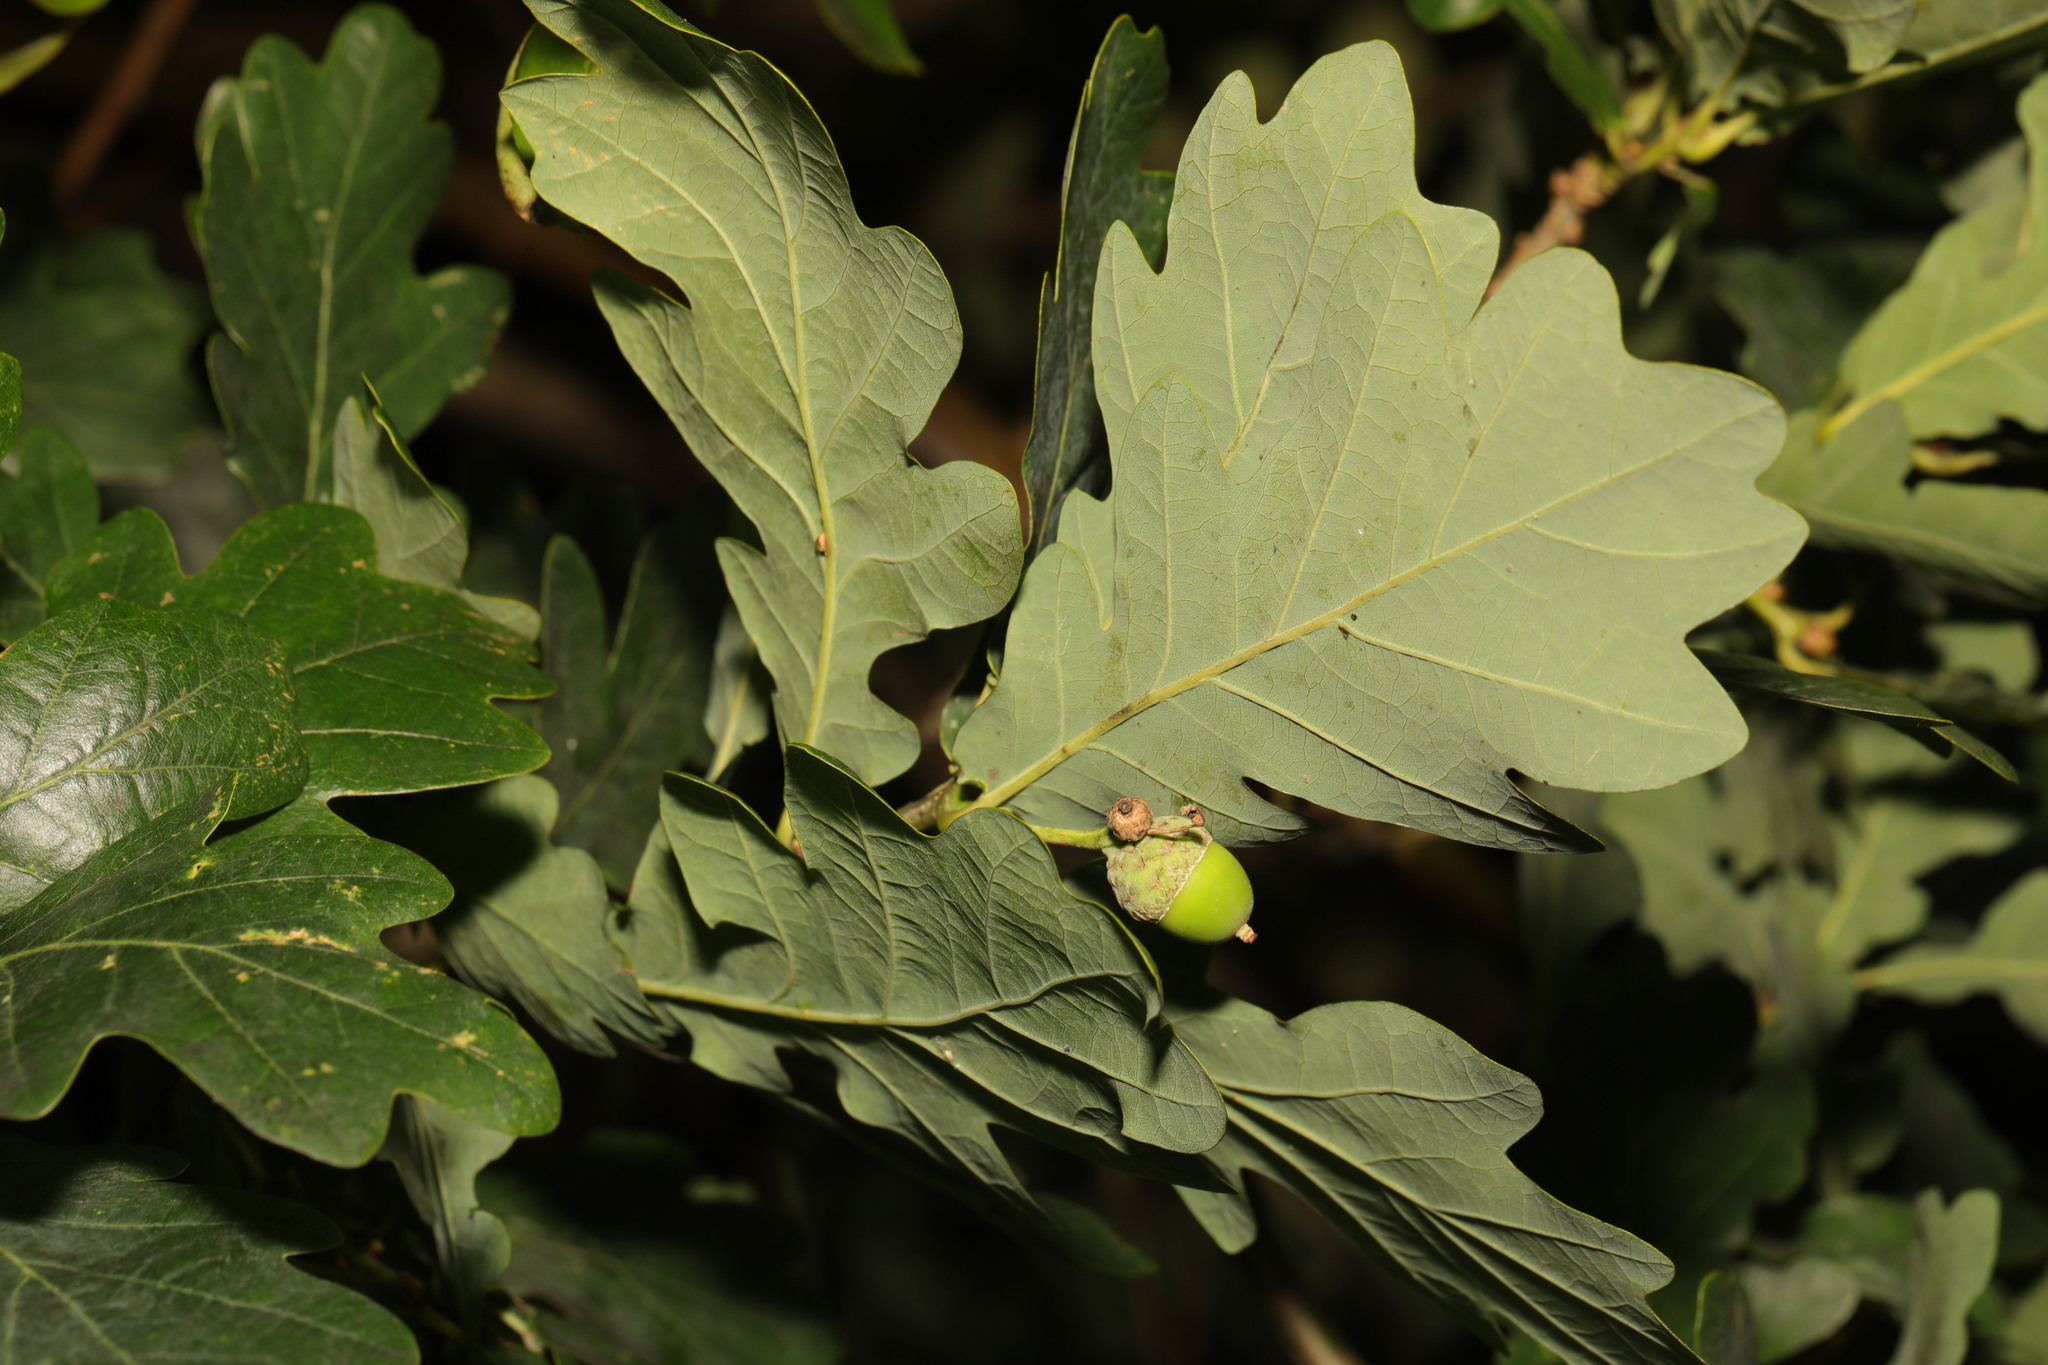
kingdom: Plantae
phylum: Tracheophyta
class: Magnoliopsida
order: Fagales
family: Fagaceae
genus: Quercus
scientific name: Quercus robur
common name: Pedunculate oak
